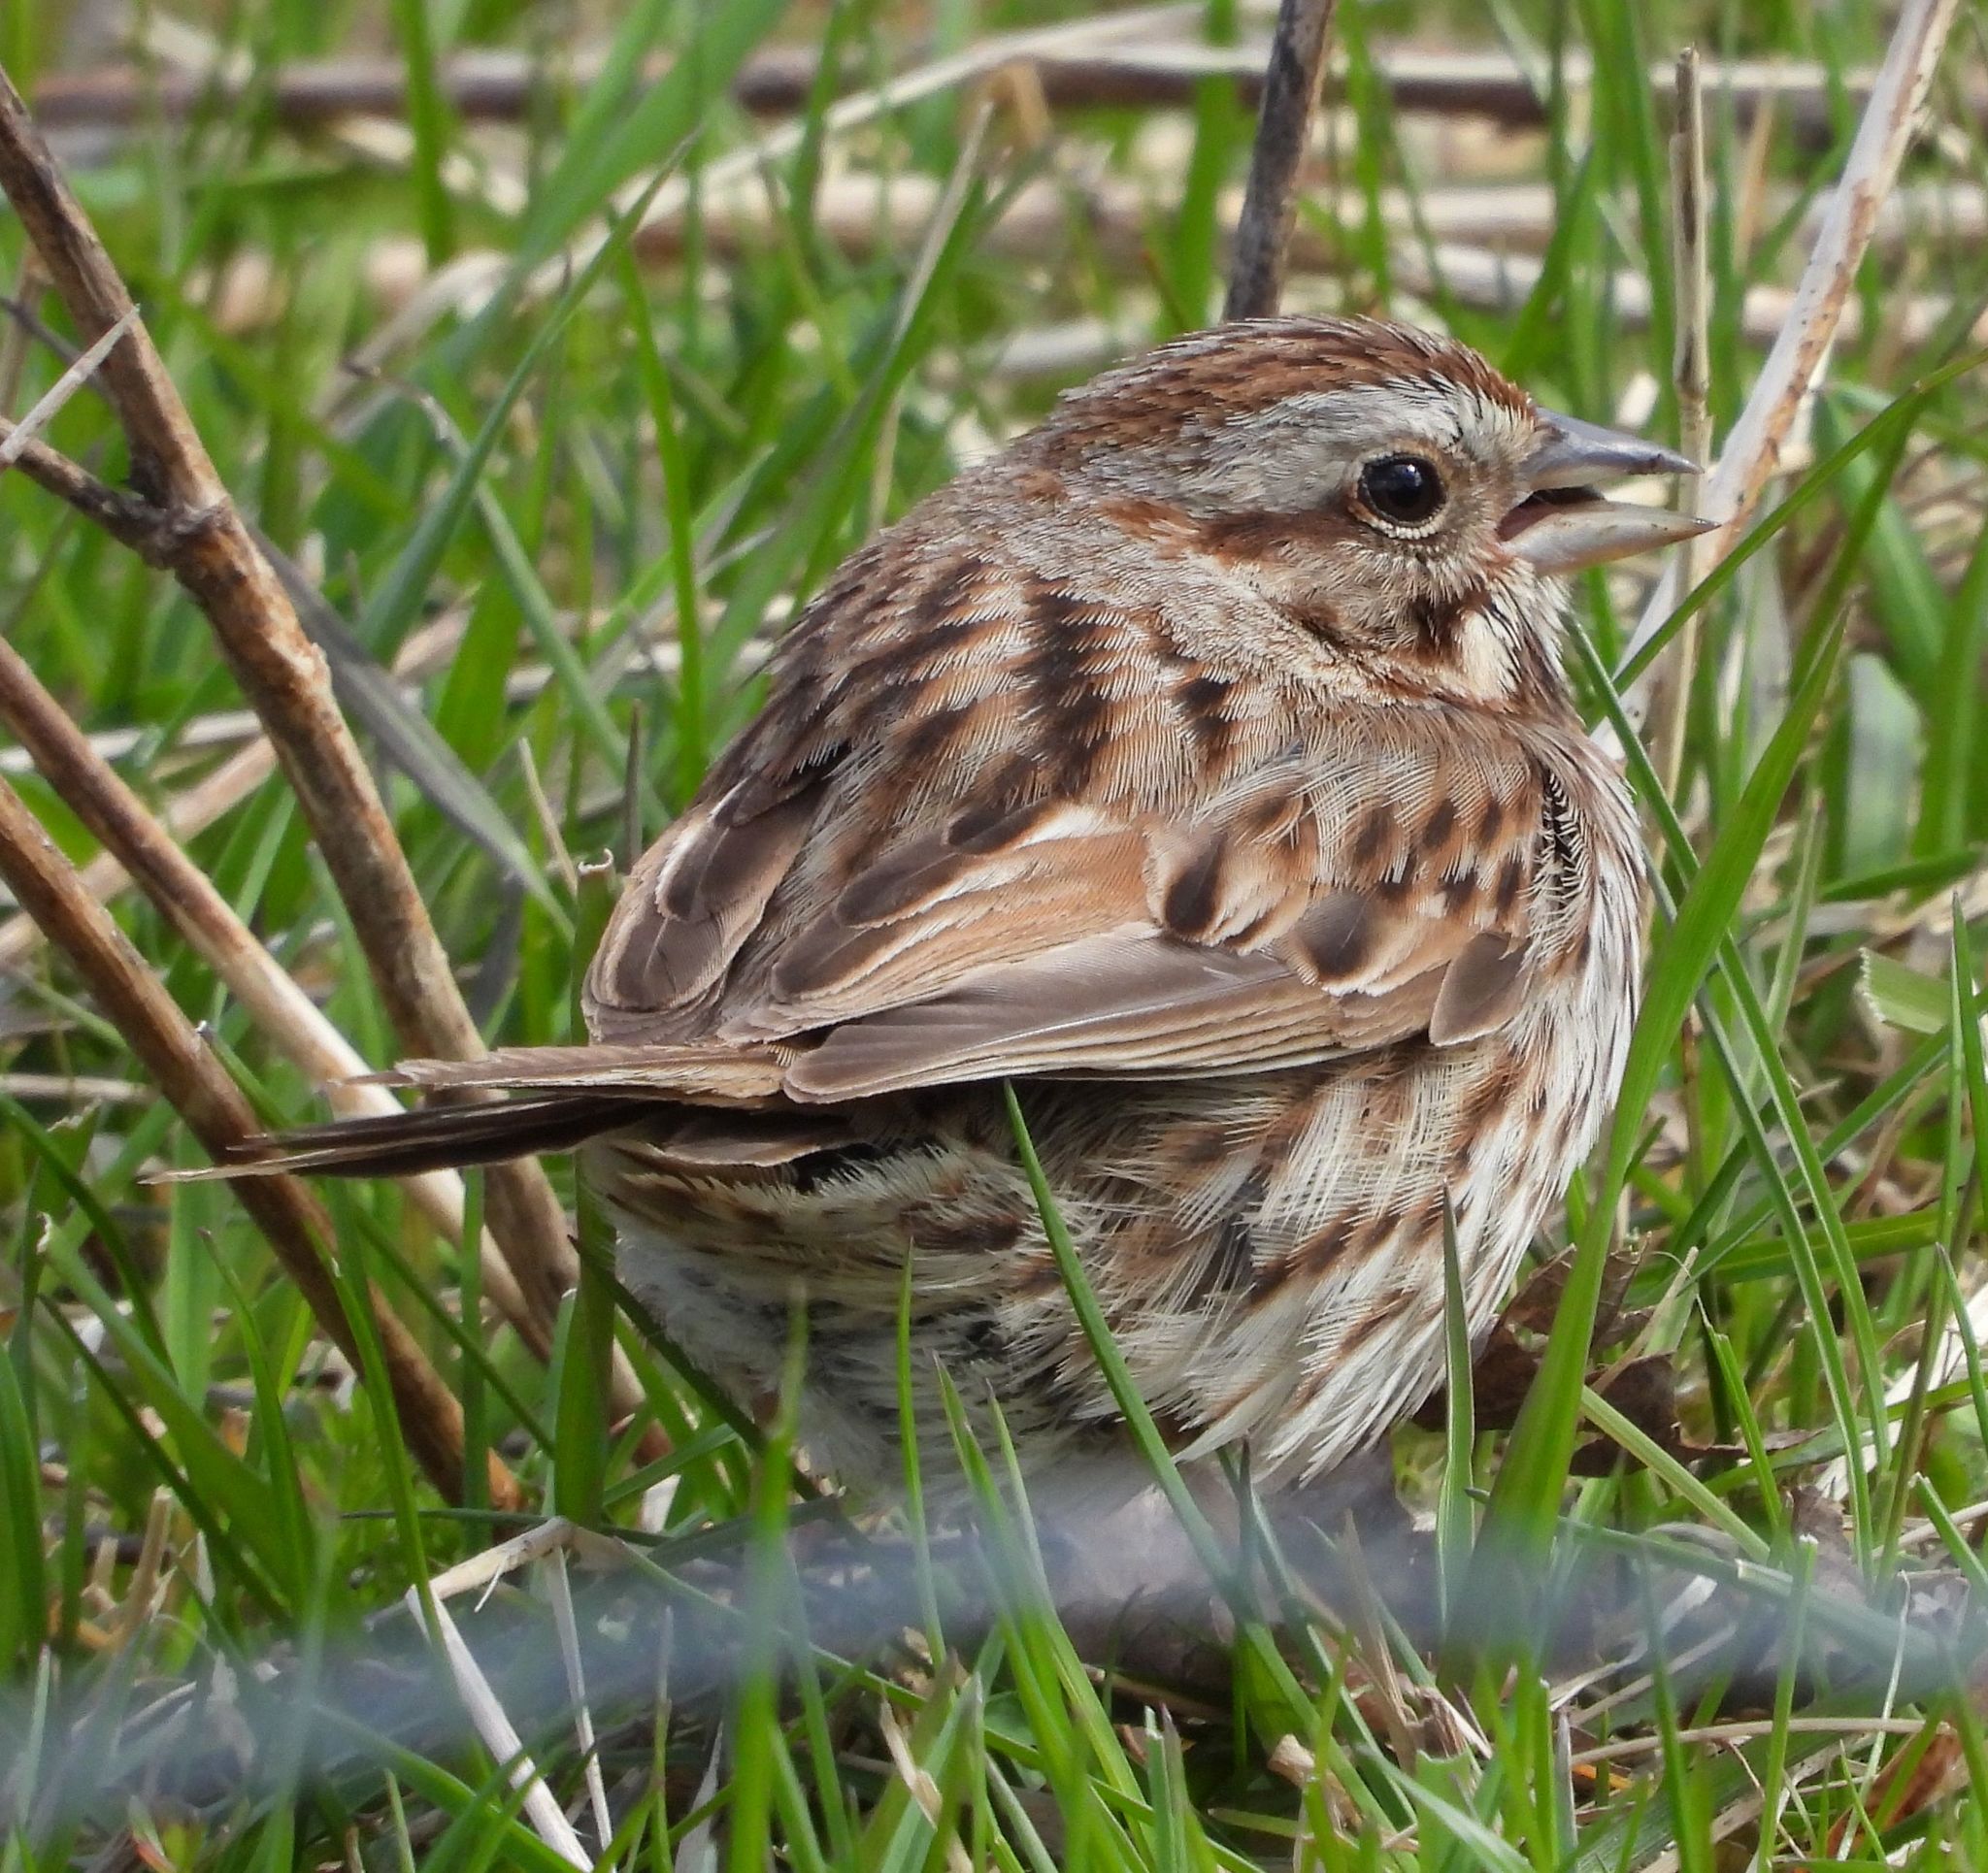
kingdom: Animalia
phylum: Chordata
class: Aves
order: Passeriformes
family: Passerellidae
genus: Melospiza
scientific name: Melospiza melodia
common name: Song sparrow
